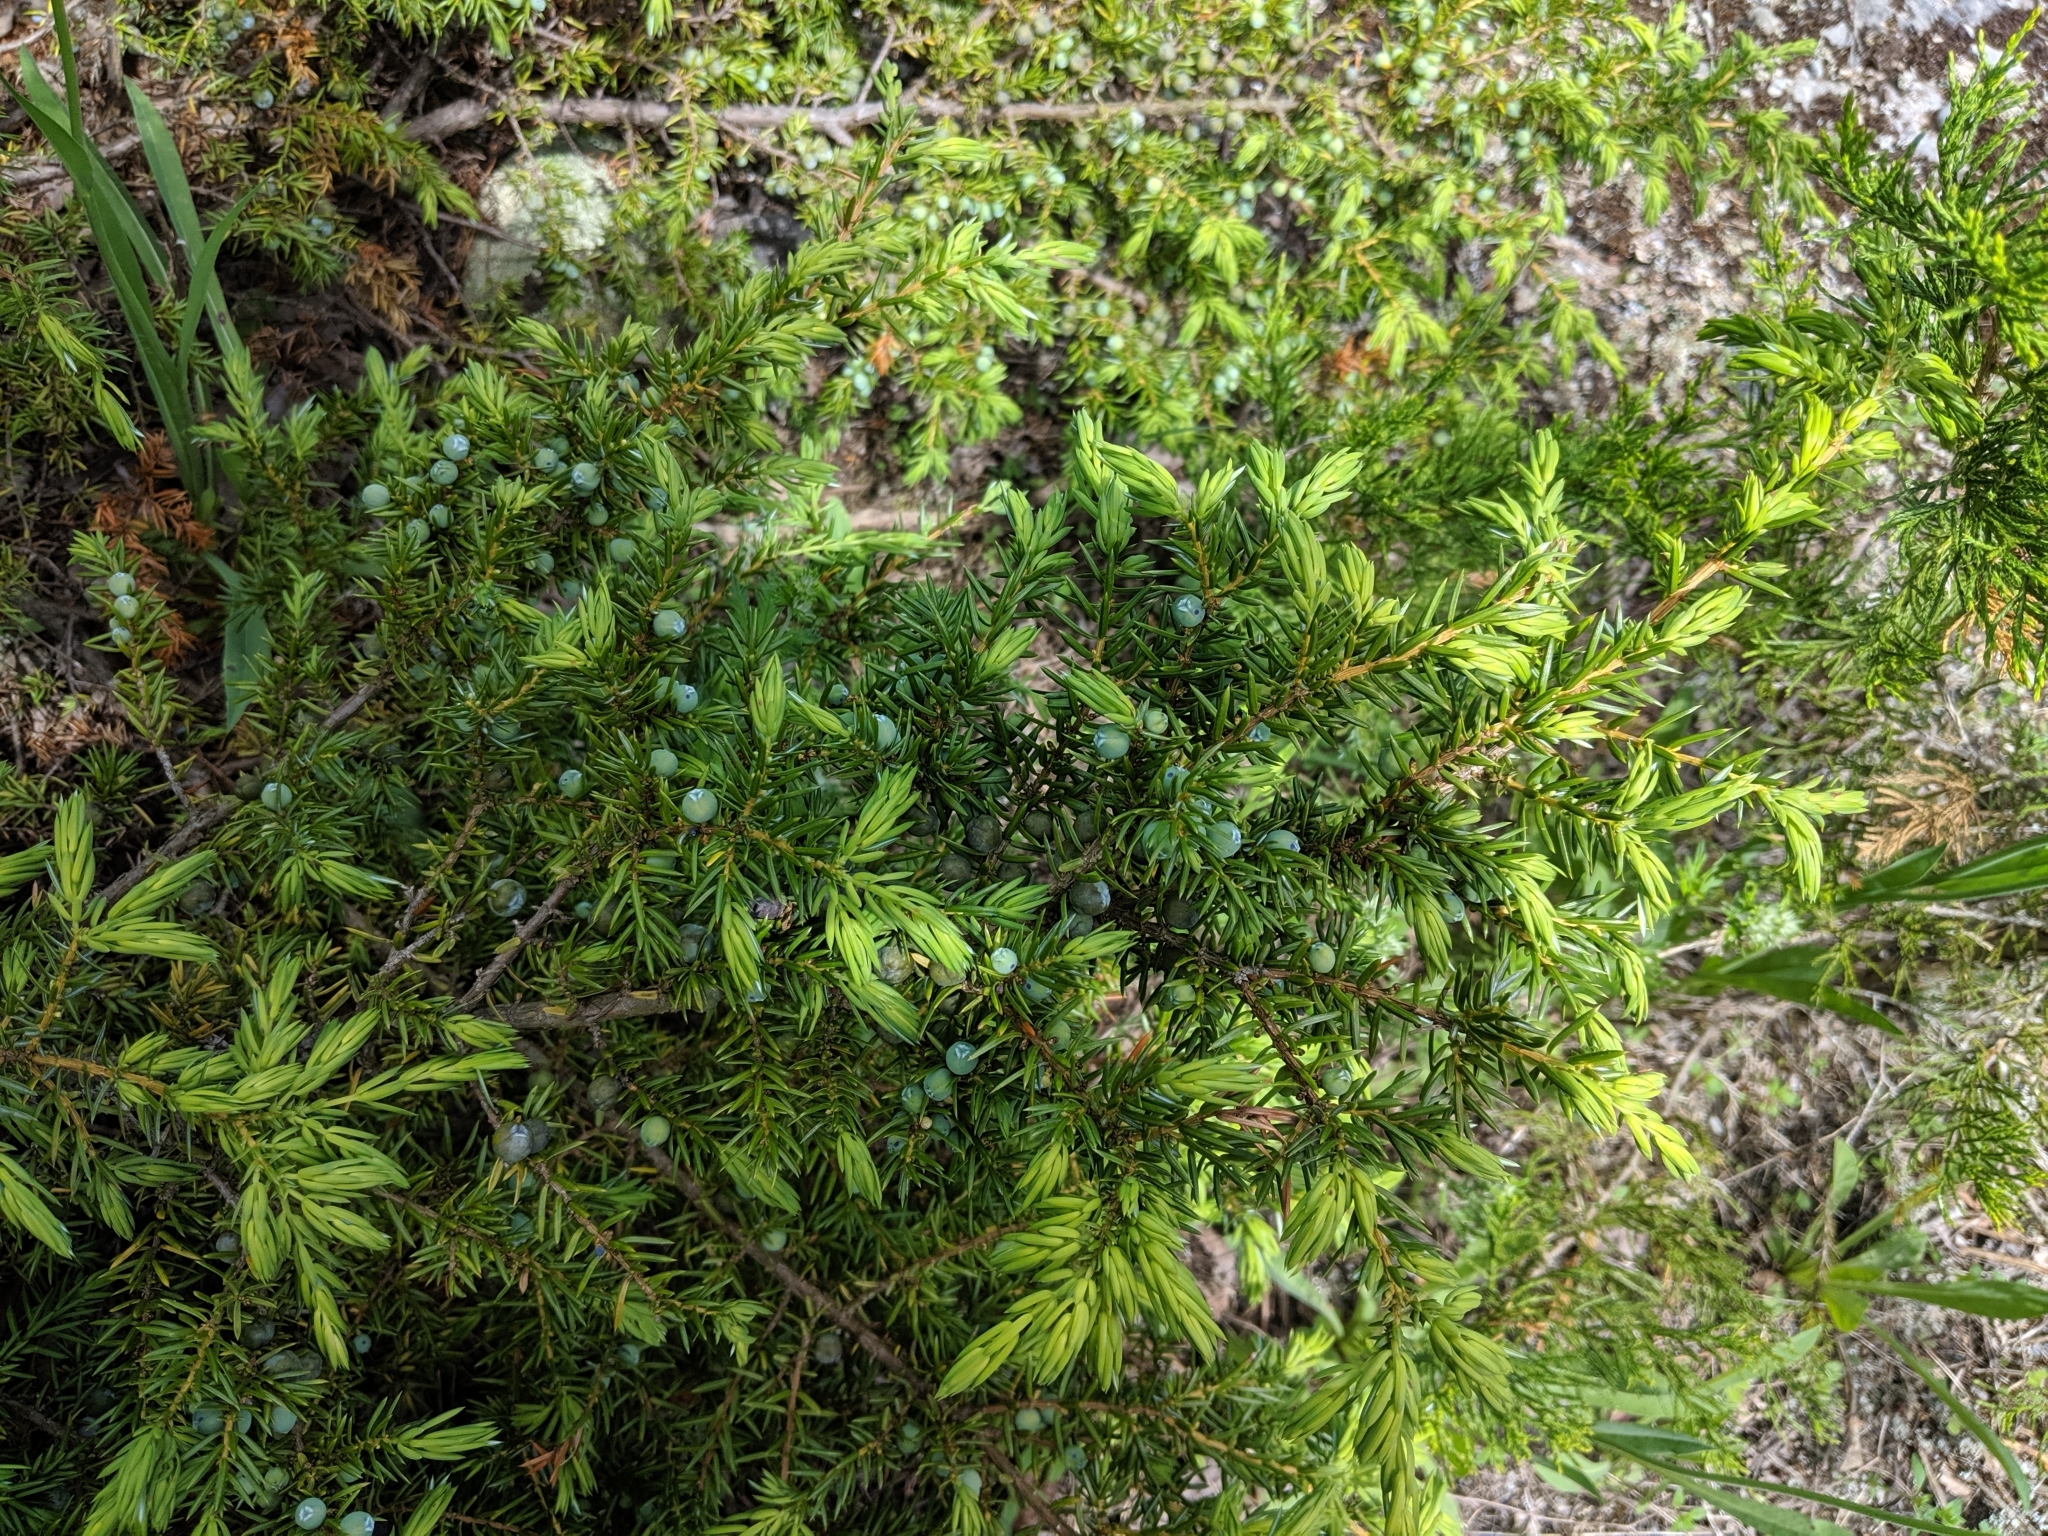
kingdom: Plantae
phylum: Tracheophyta
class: Pinopsida
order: Pinales
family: Cupressaceae
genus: Juniperus
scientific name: Juniperus communis
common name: Common juniper
